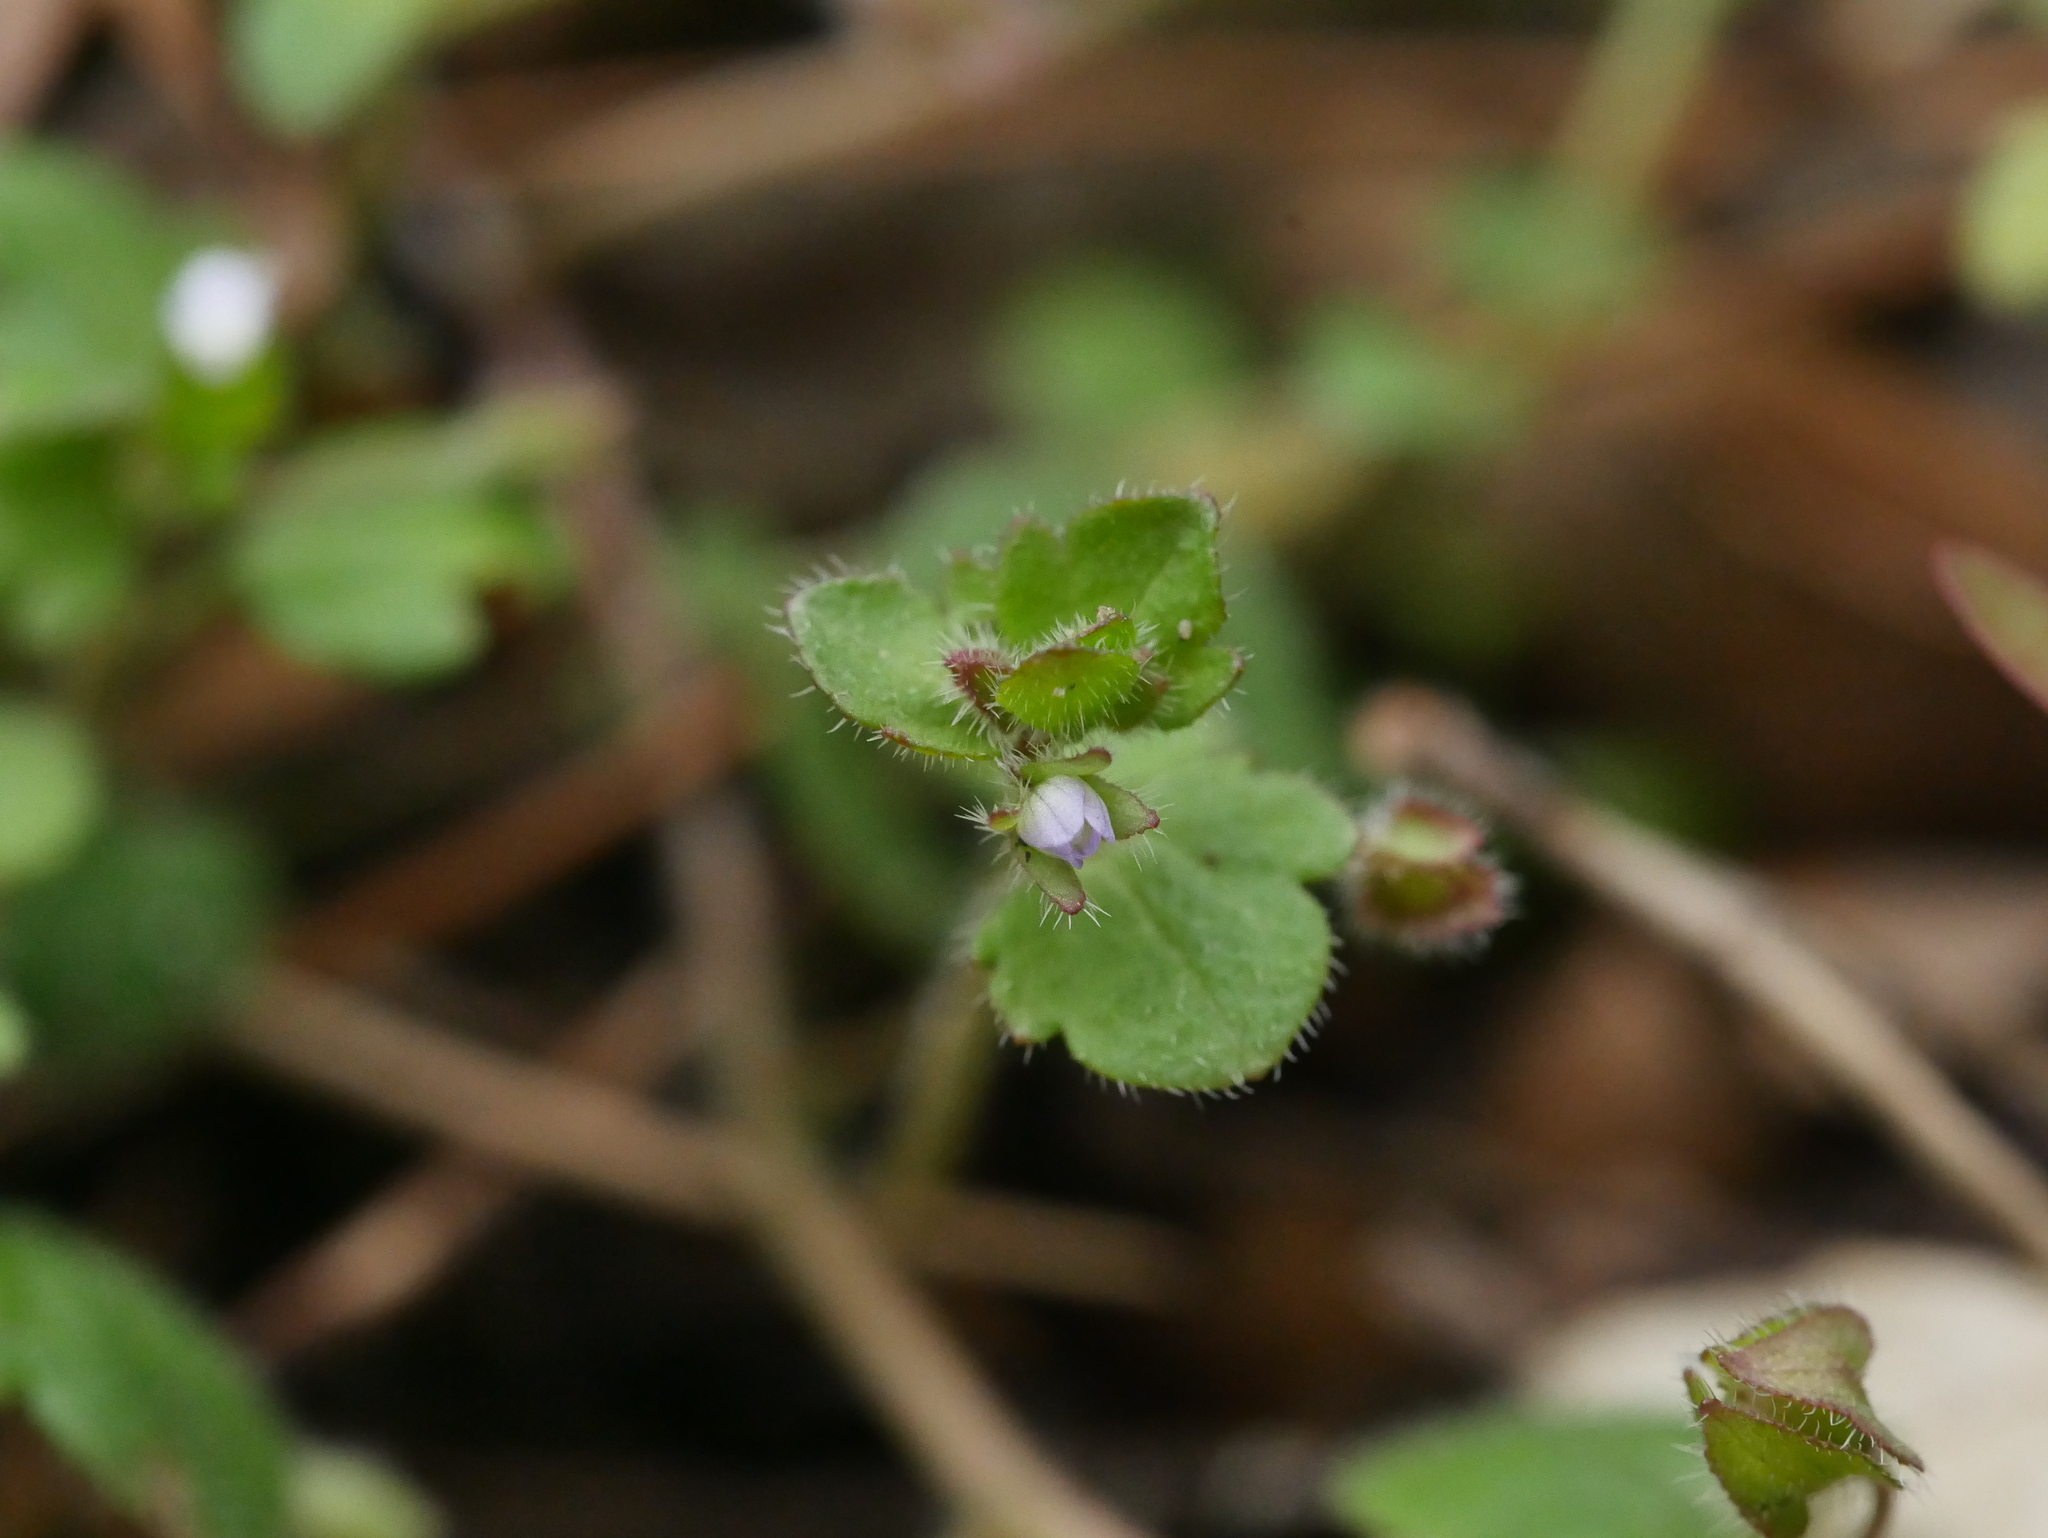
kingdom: Plantae
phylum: Tracheophyta
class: Magnoliopsida
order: Lamiales
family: Plantaginaceae
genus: Veronica
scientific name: Veronica sublobata
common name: False ivy-leaved speedwell
